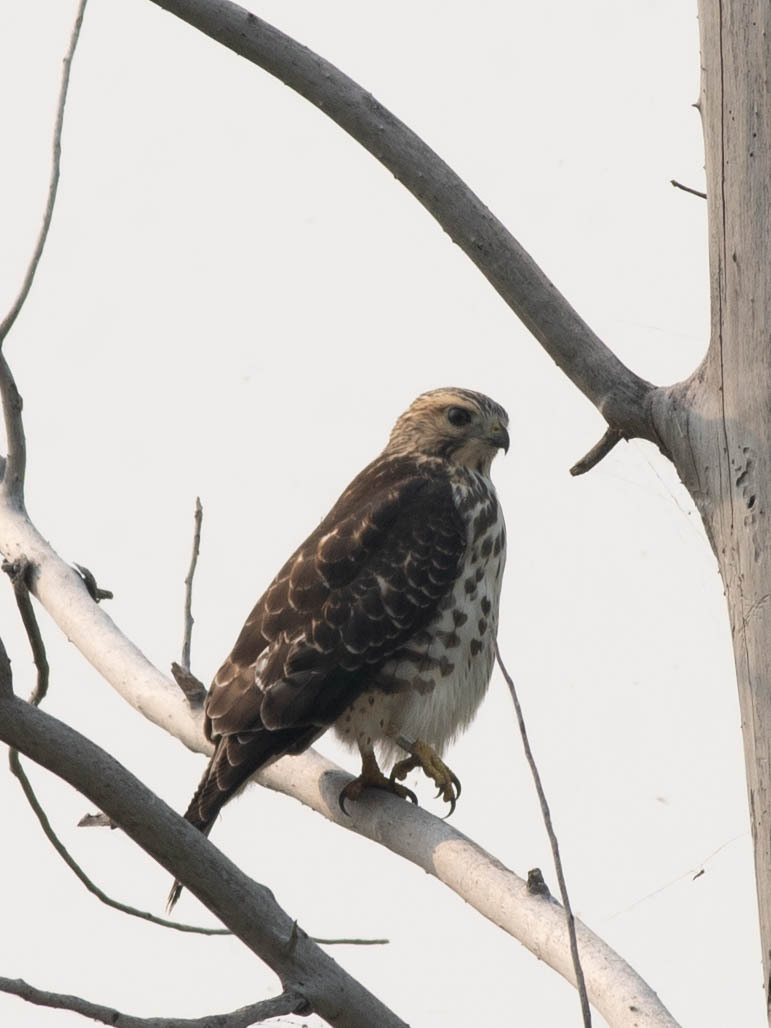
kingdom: Animalia
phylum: Chordata
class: Aves
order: Accipitriformes
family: Accipitridae
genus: Buteo
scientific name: Buteo swainsoni
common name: Swainson's hawk
